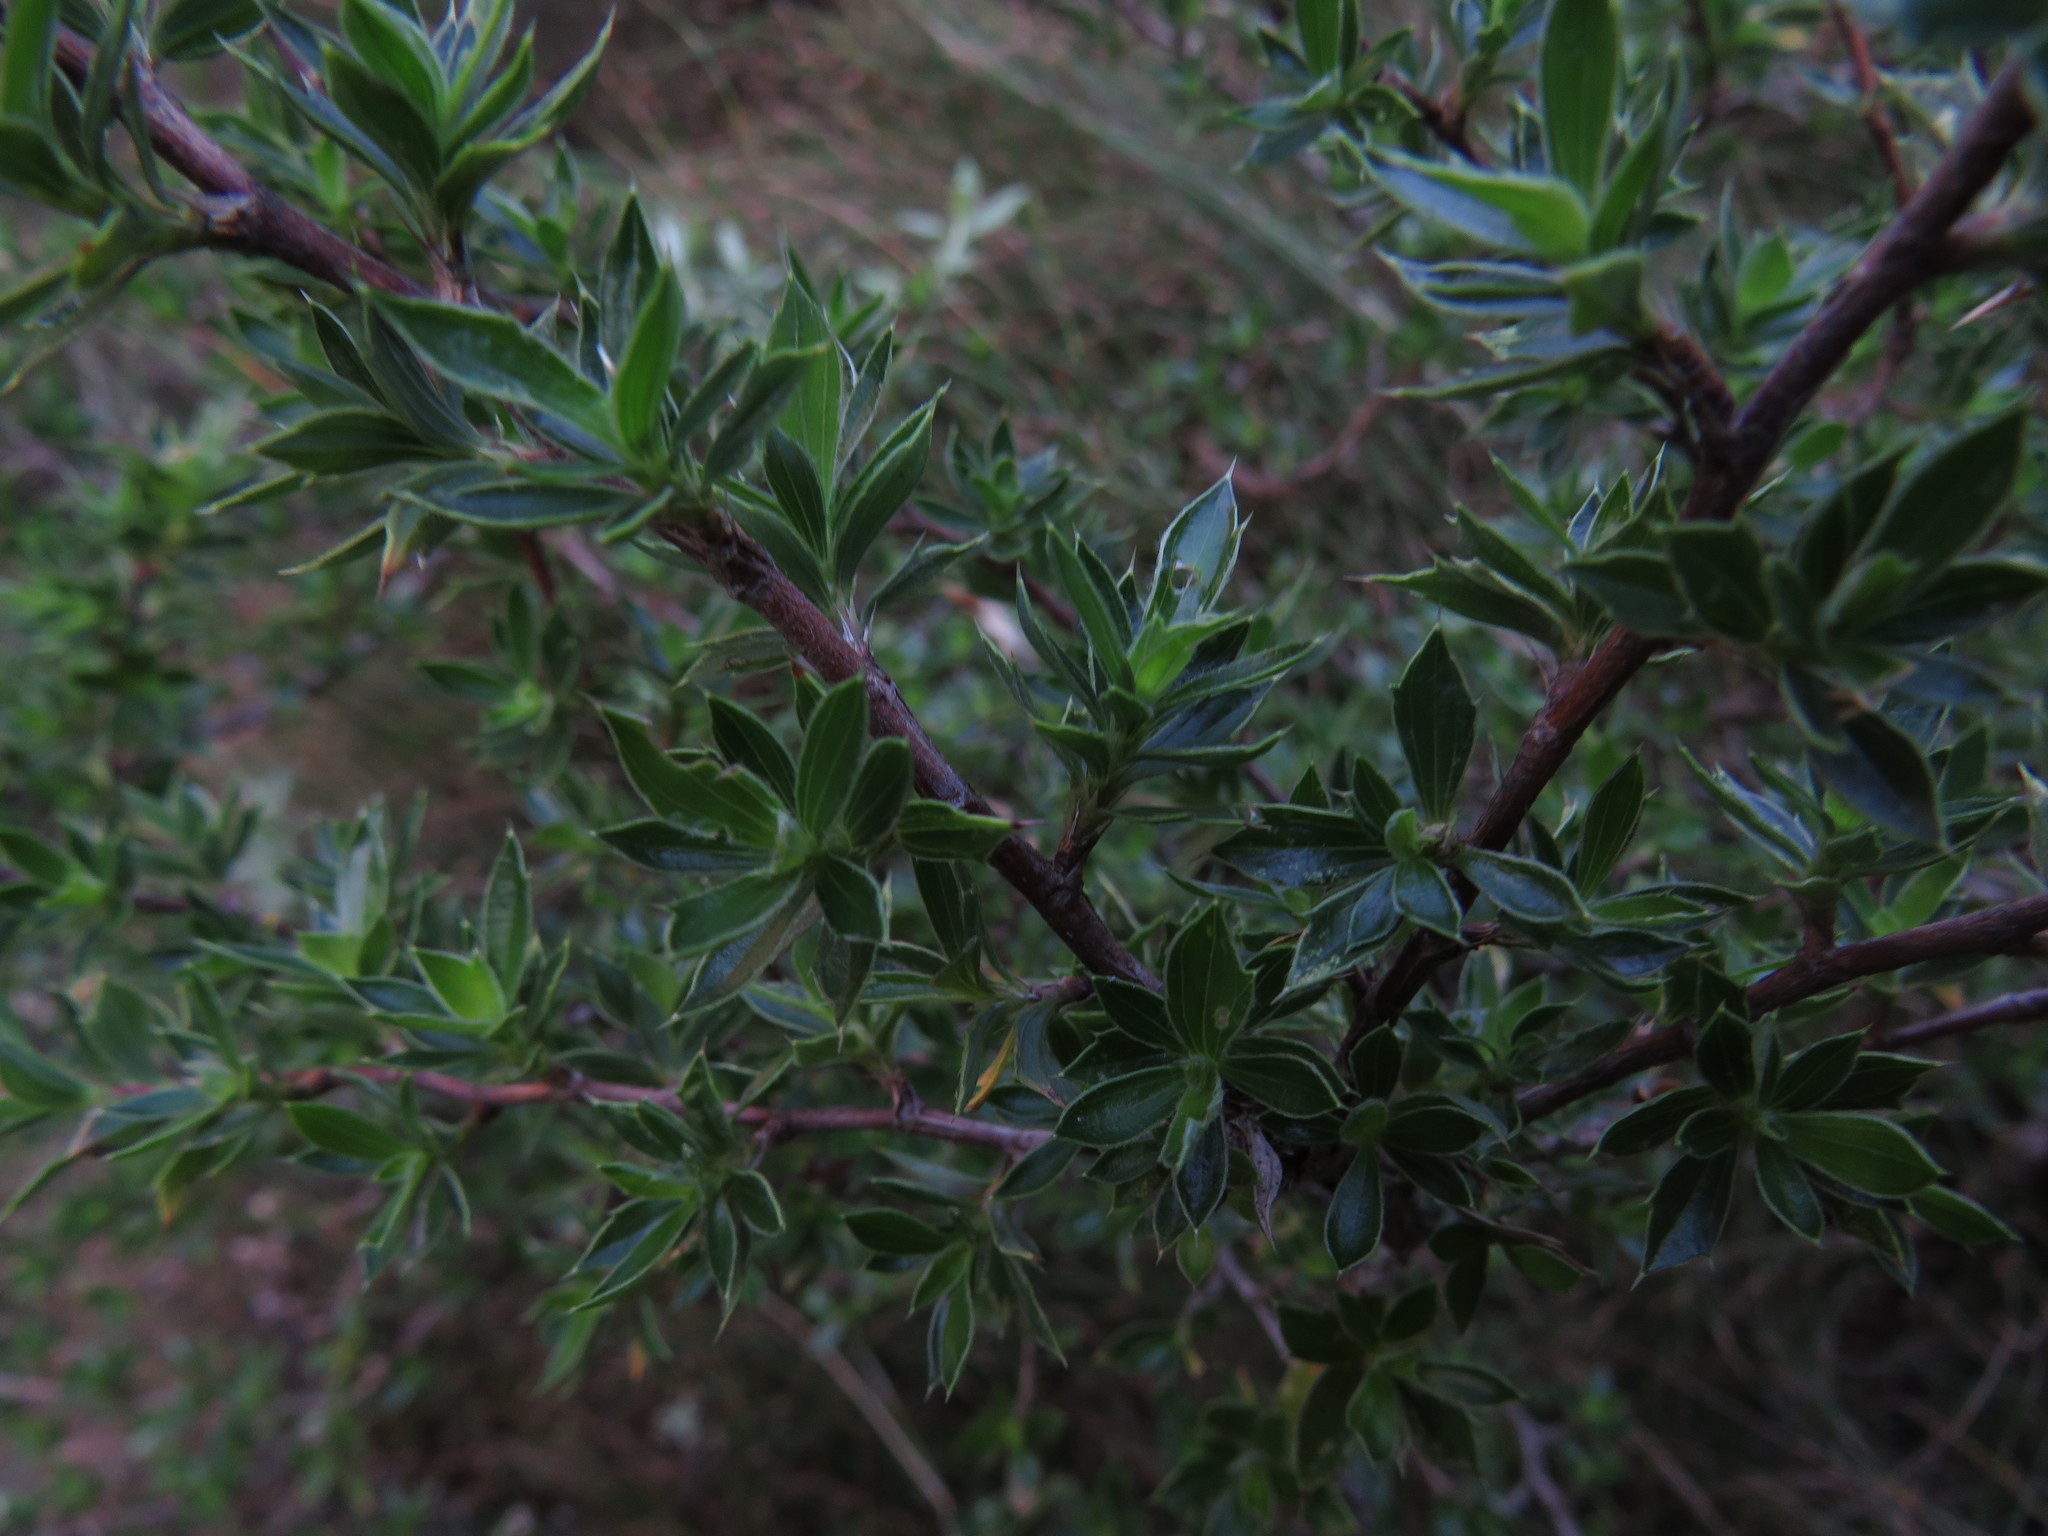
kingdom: Plantae
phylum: Tracheophyta
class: Magnoliopsida
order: Rosales
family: Rosaceae
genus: Cliffortia
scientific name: Cliffortia tridentata
